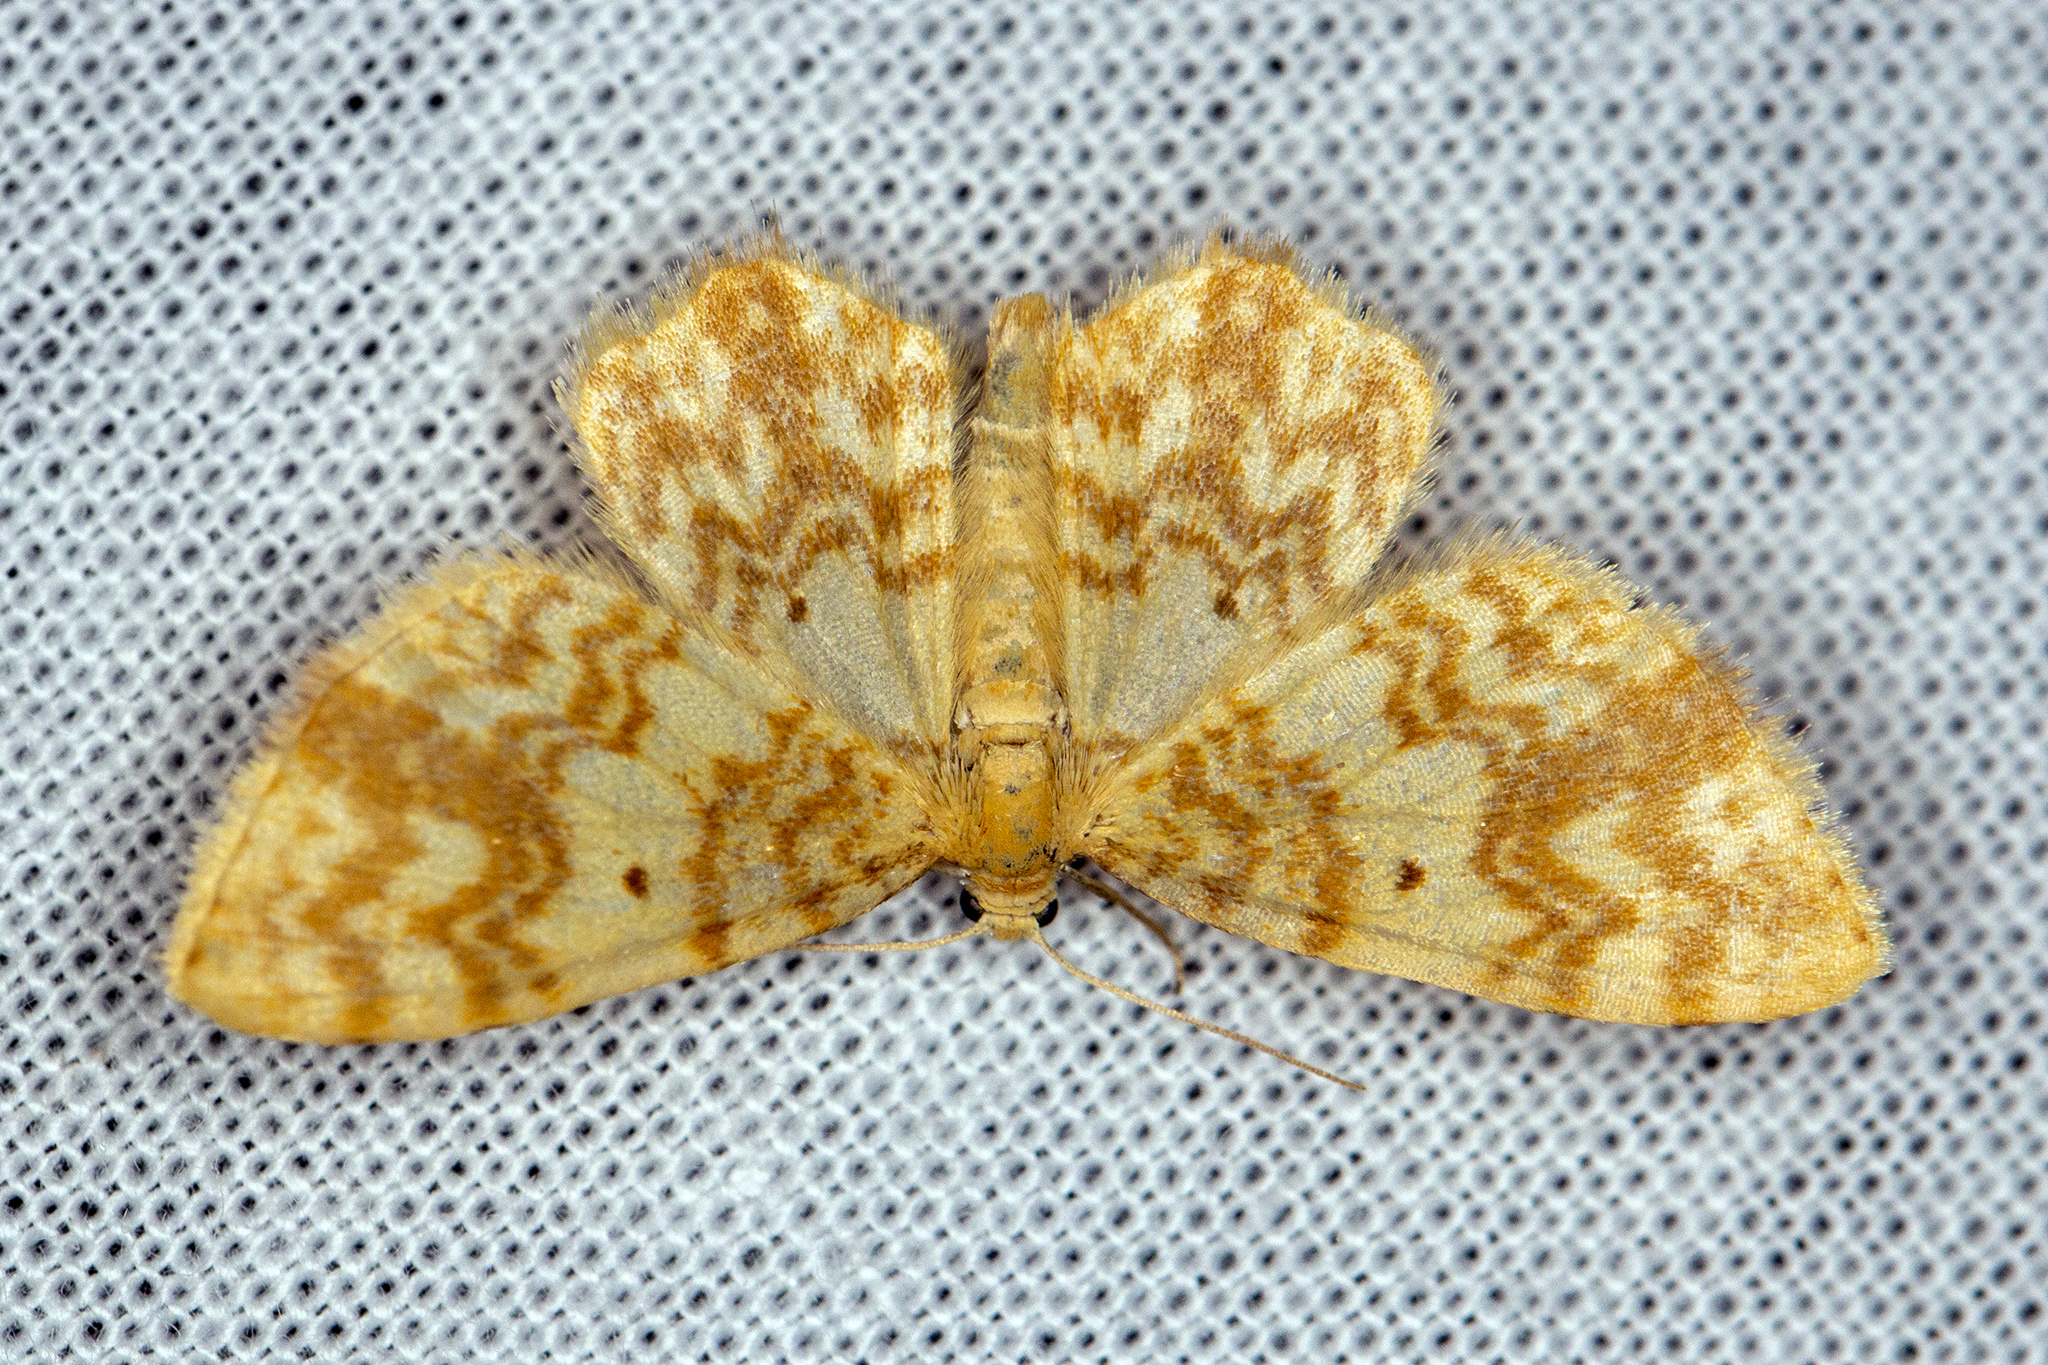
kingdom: Animalia
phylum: Arthropoda
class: Insecta
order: Lepidoptera
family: Geometridae
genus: Hydrelia
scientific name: Hydrelia flammeolaria
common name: Small yellow wave
